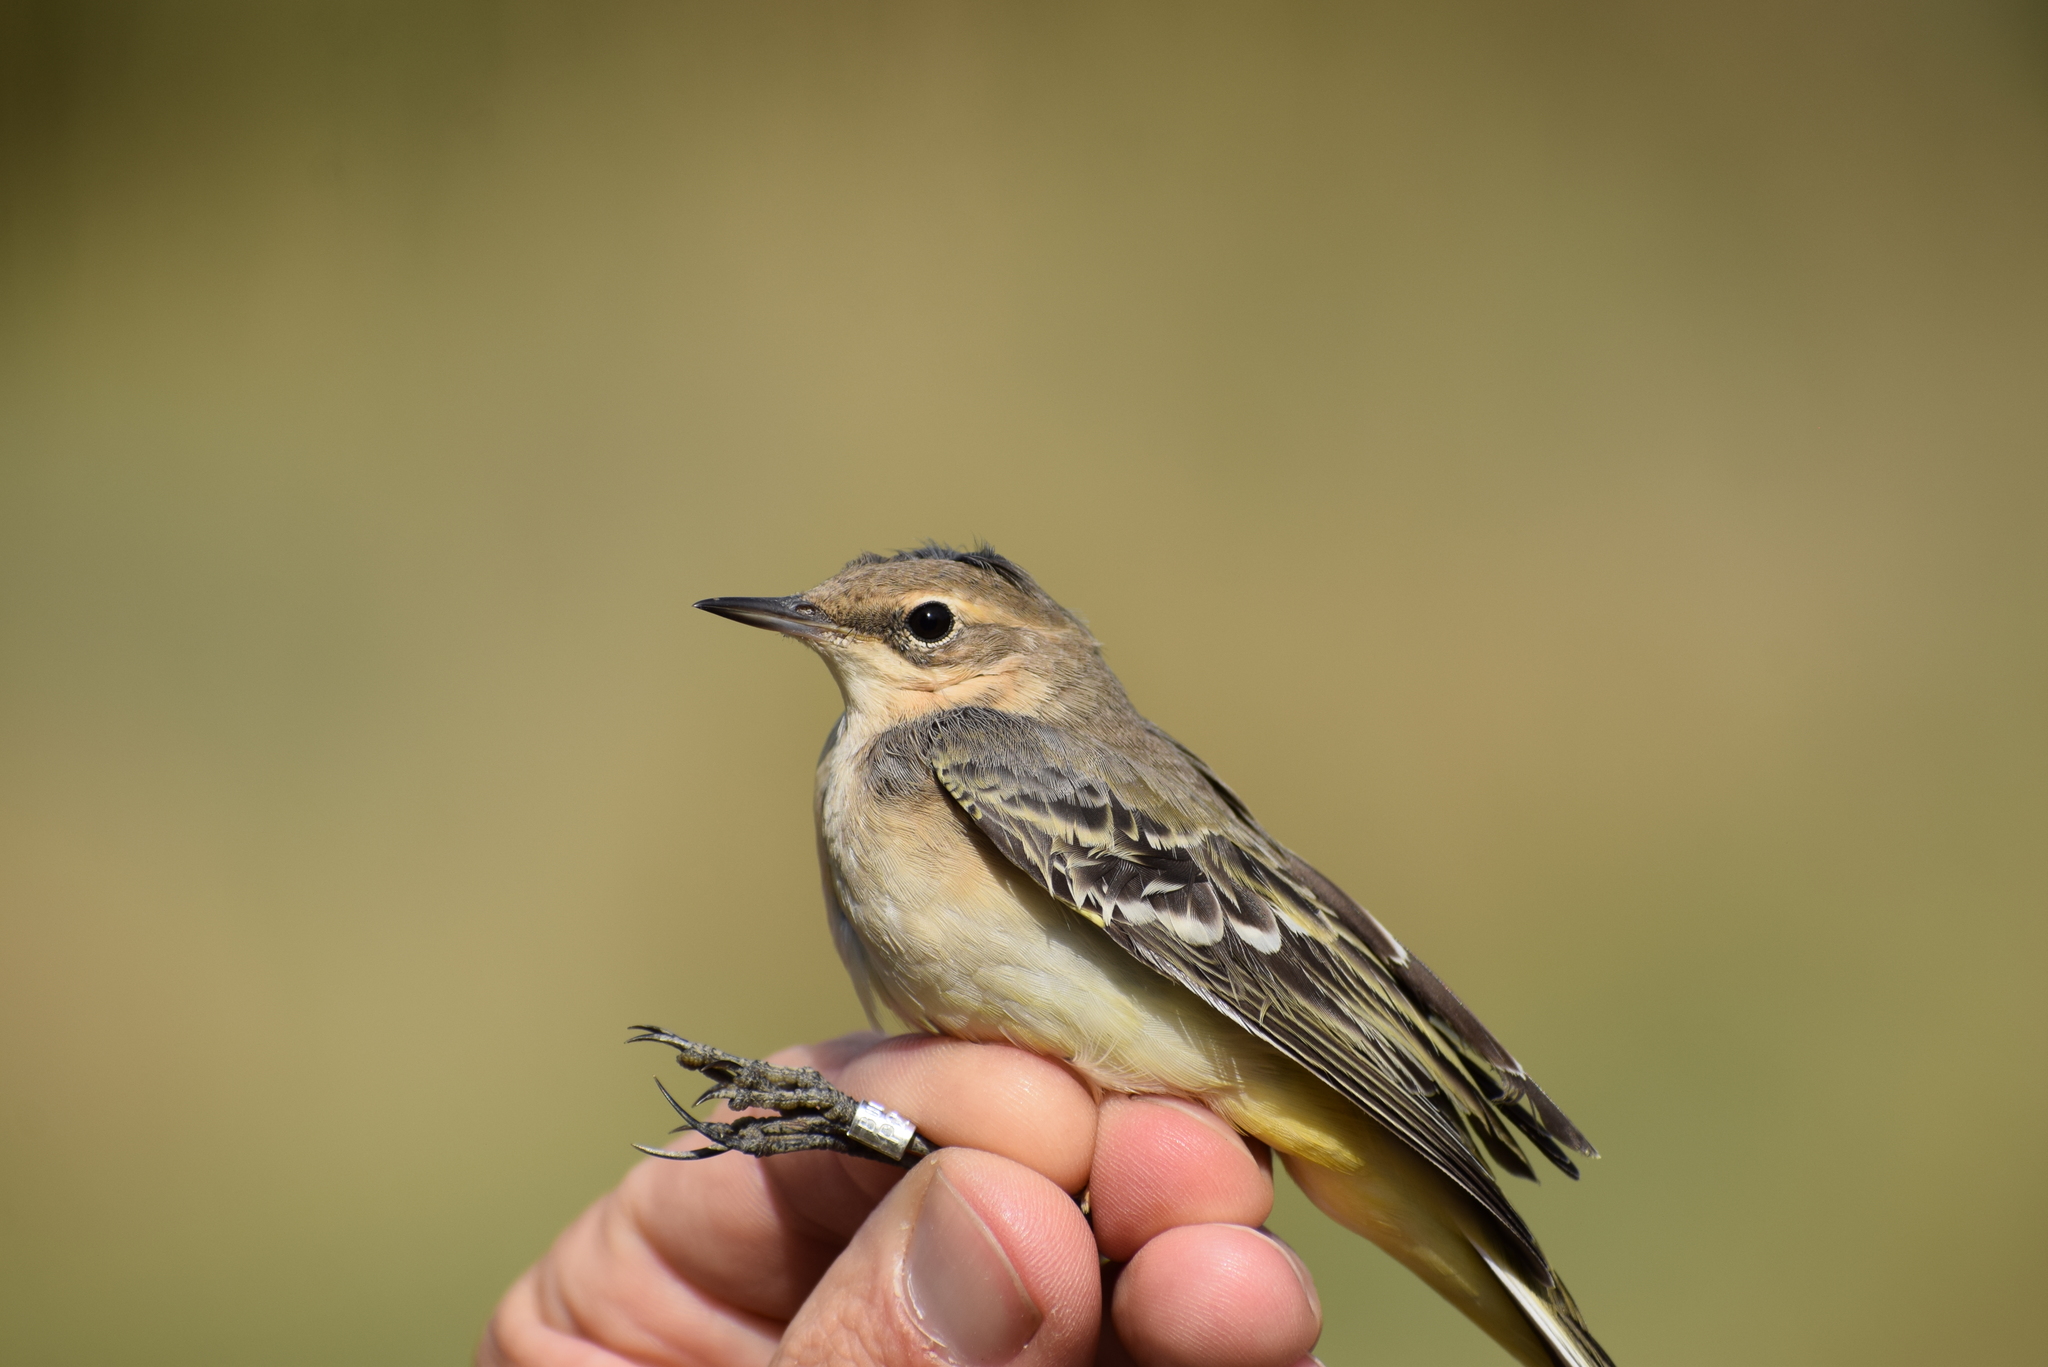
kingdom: Animalia
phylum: Chordata
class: Aves
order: Passeriformes
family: Motacillidae
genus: Motacilla
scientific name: Motacilla flava
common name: Western yellow wagtail
